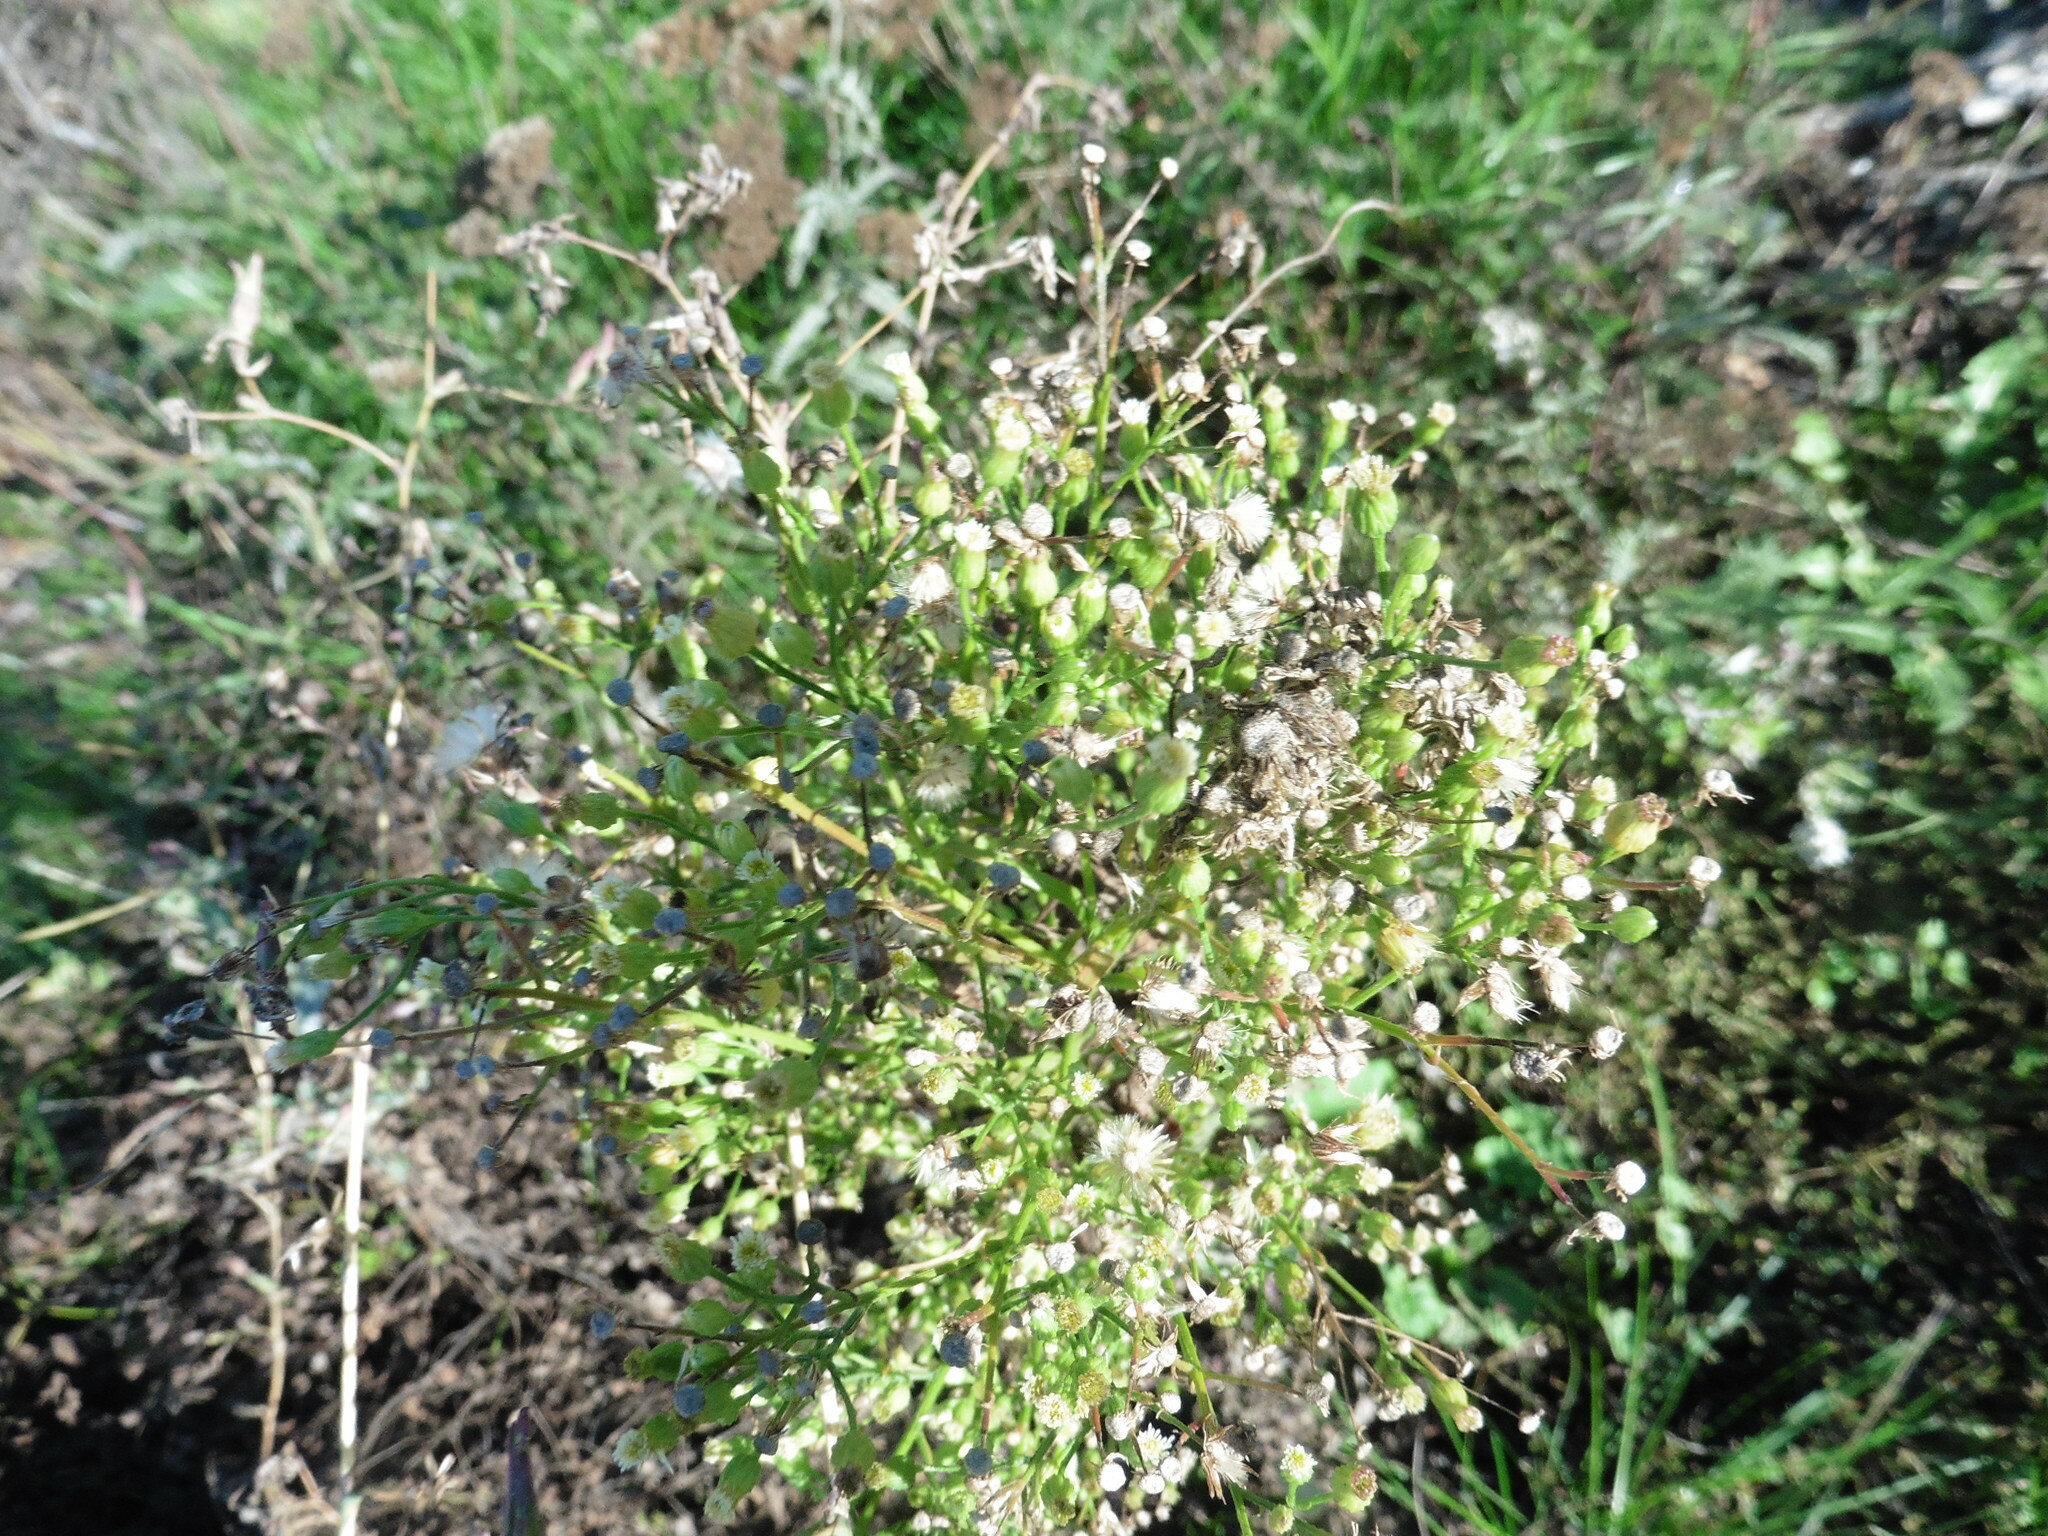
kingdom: Plantae
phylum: Tracheophyta
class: Magnoliopsida
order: Asterales
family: Asteraceae
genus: Erigeron
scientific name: Erigeron canadensis
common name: Canadian fleabane
